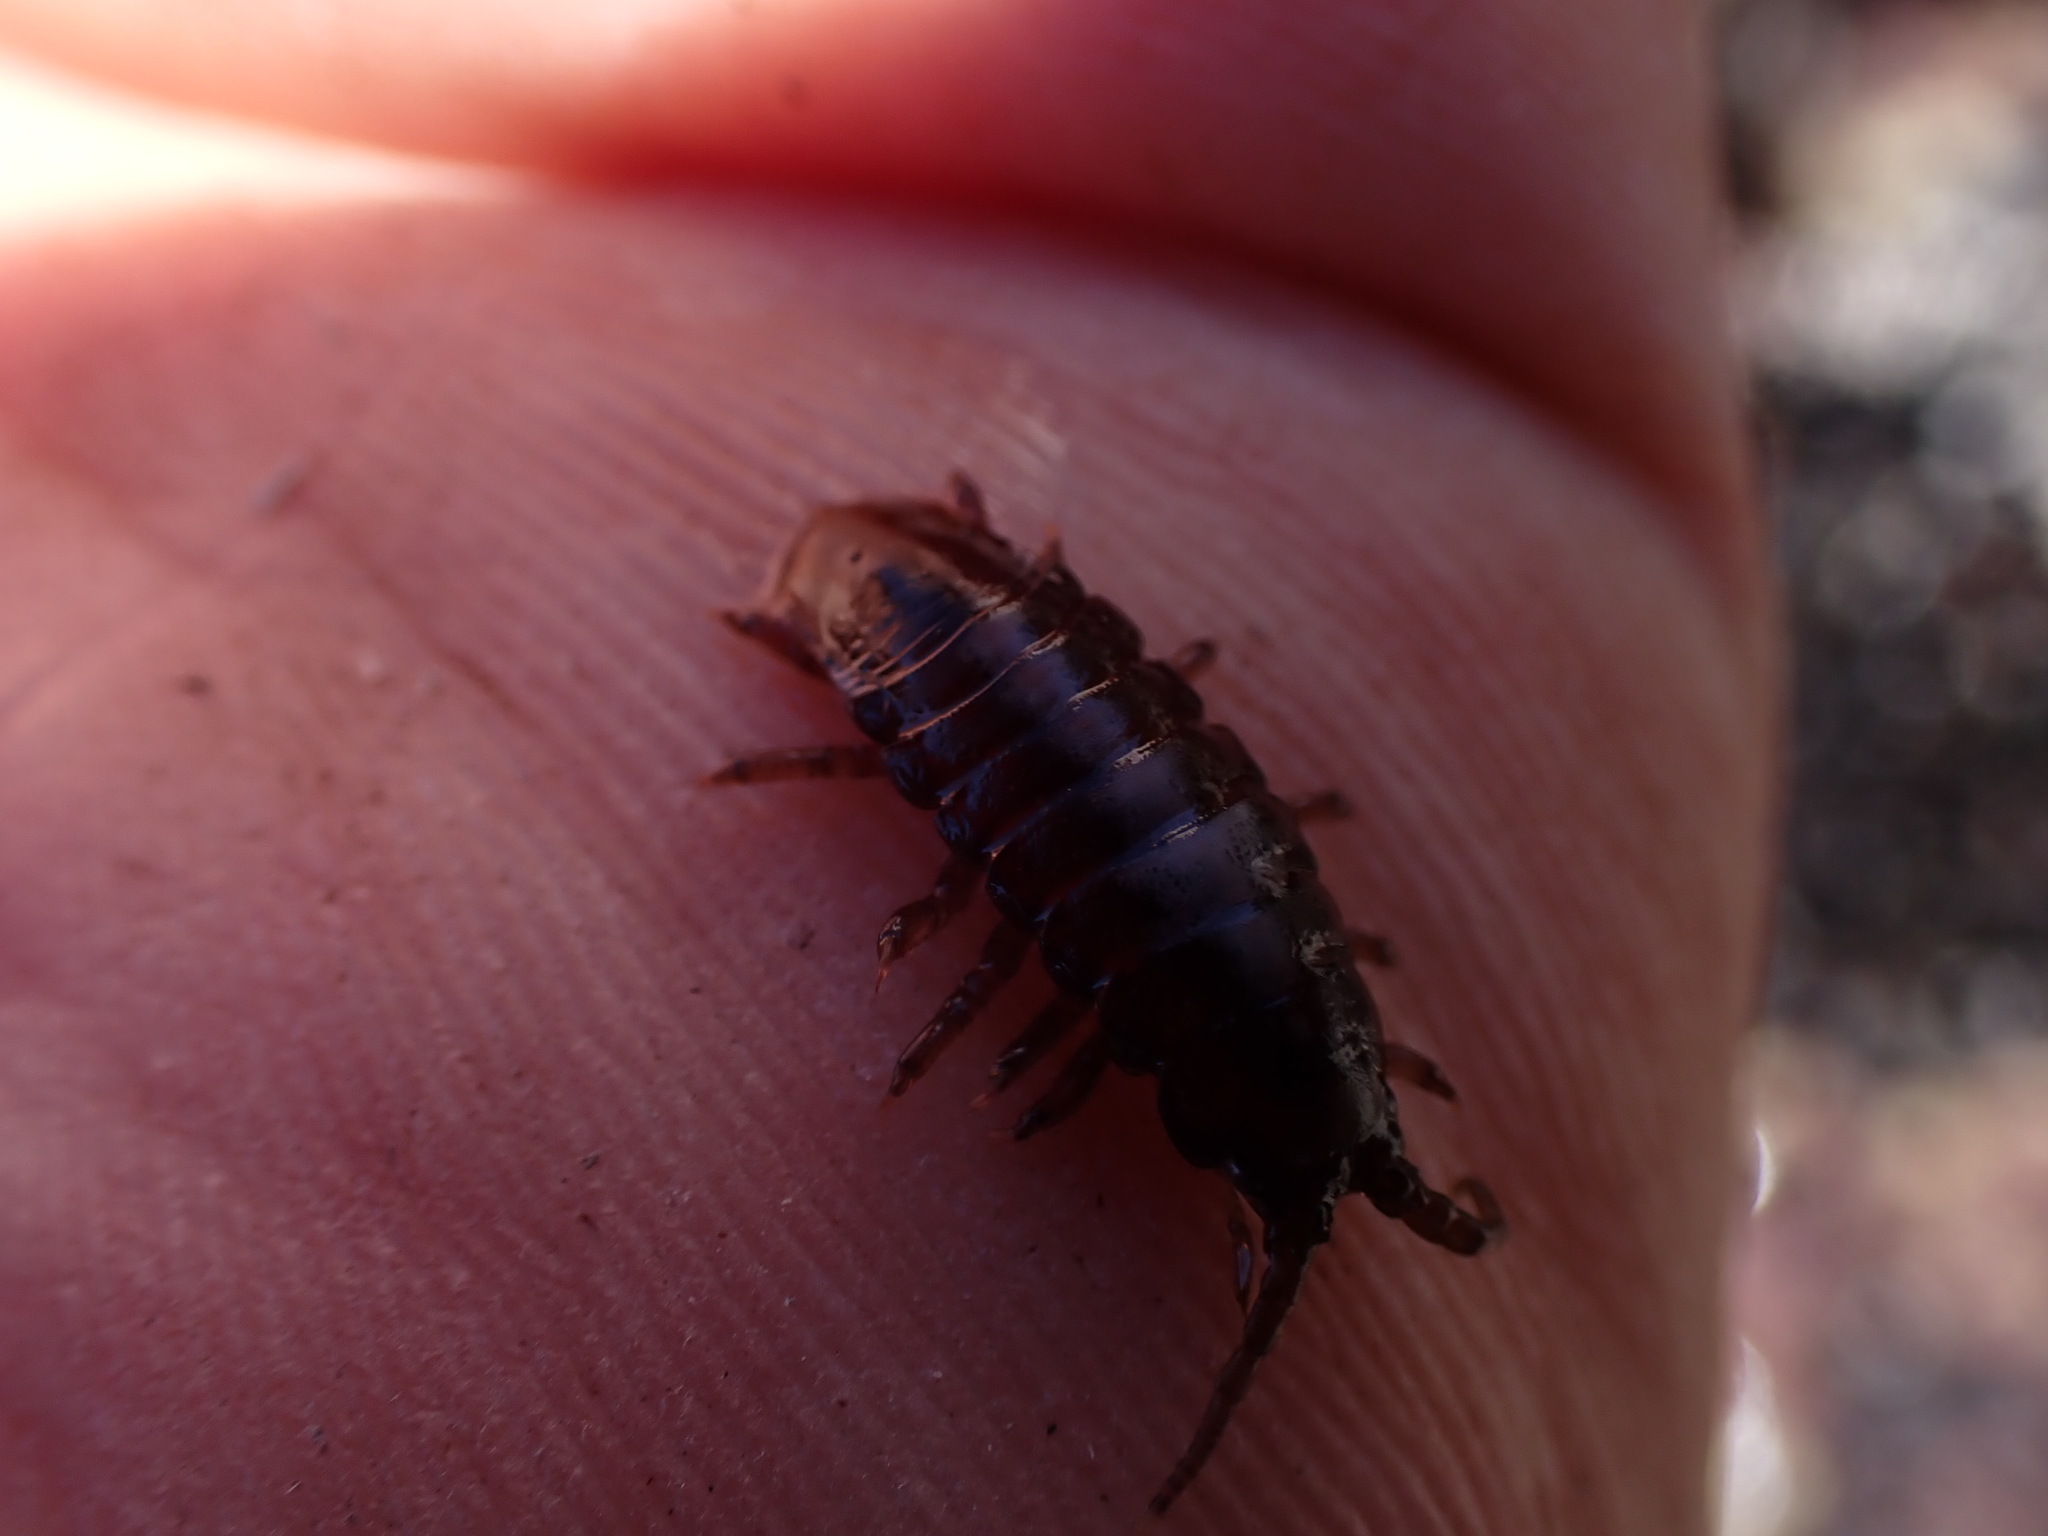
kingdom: Animalia
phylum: Arthropoda
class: Malacostraca
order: Isopoda
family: Idoteidae
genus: Pentidotea
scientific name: Pentidotea wosnesenskii
